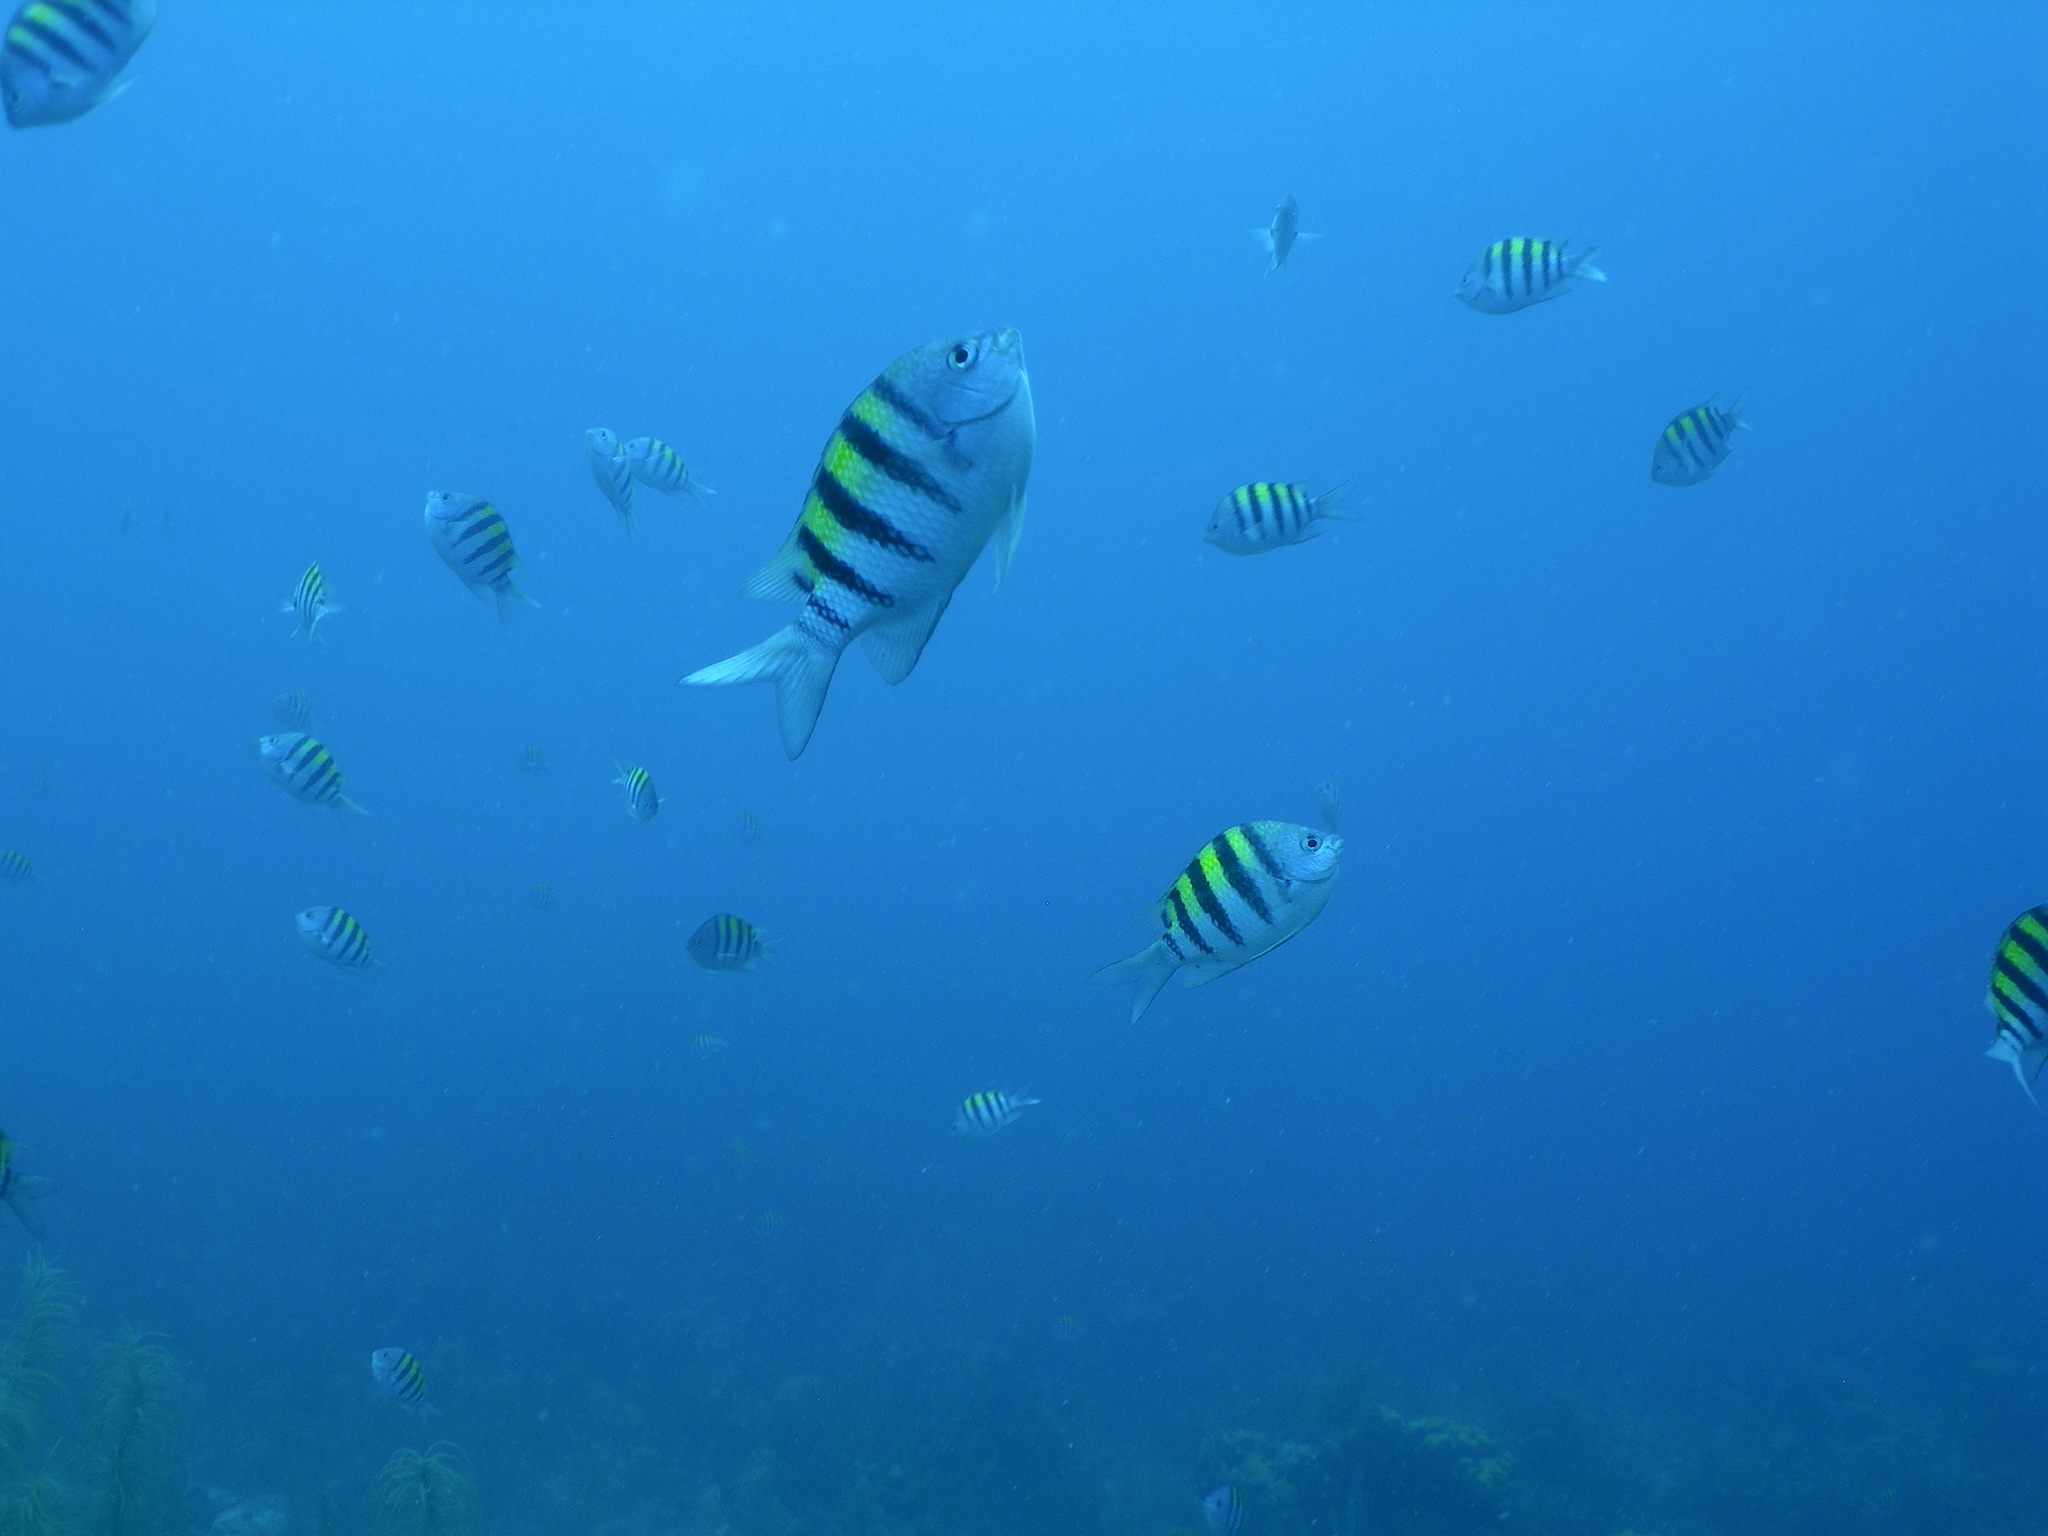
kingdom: Animalia
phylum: Chordata
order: Perciformes
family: Pomacentridae
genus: Abudefduf
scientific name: Abudefduf saxatilis
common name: Sergeant major
